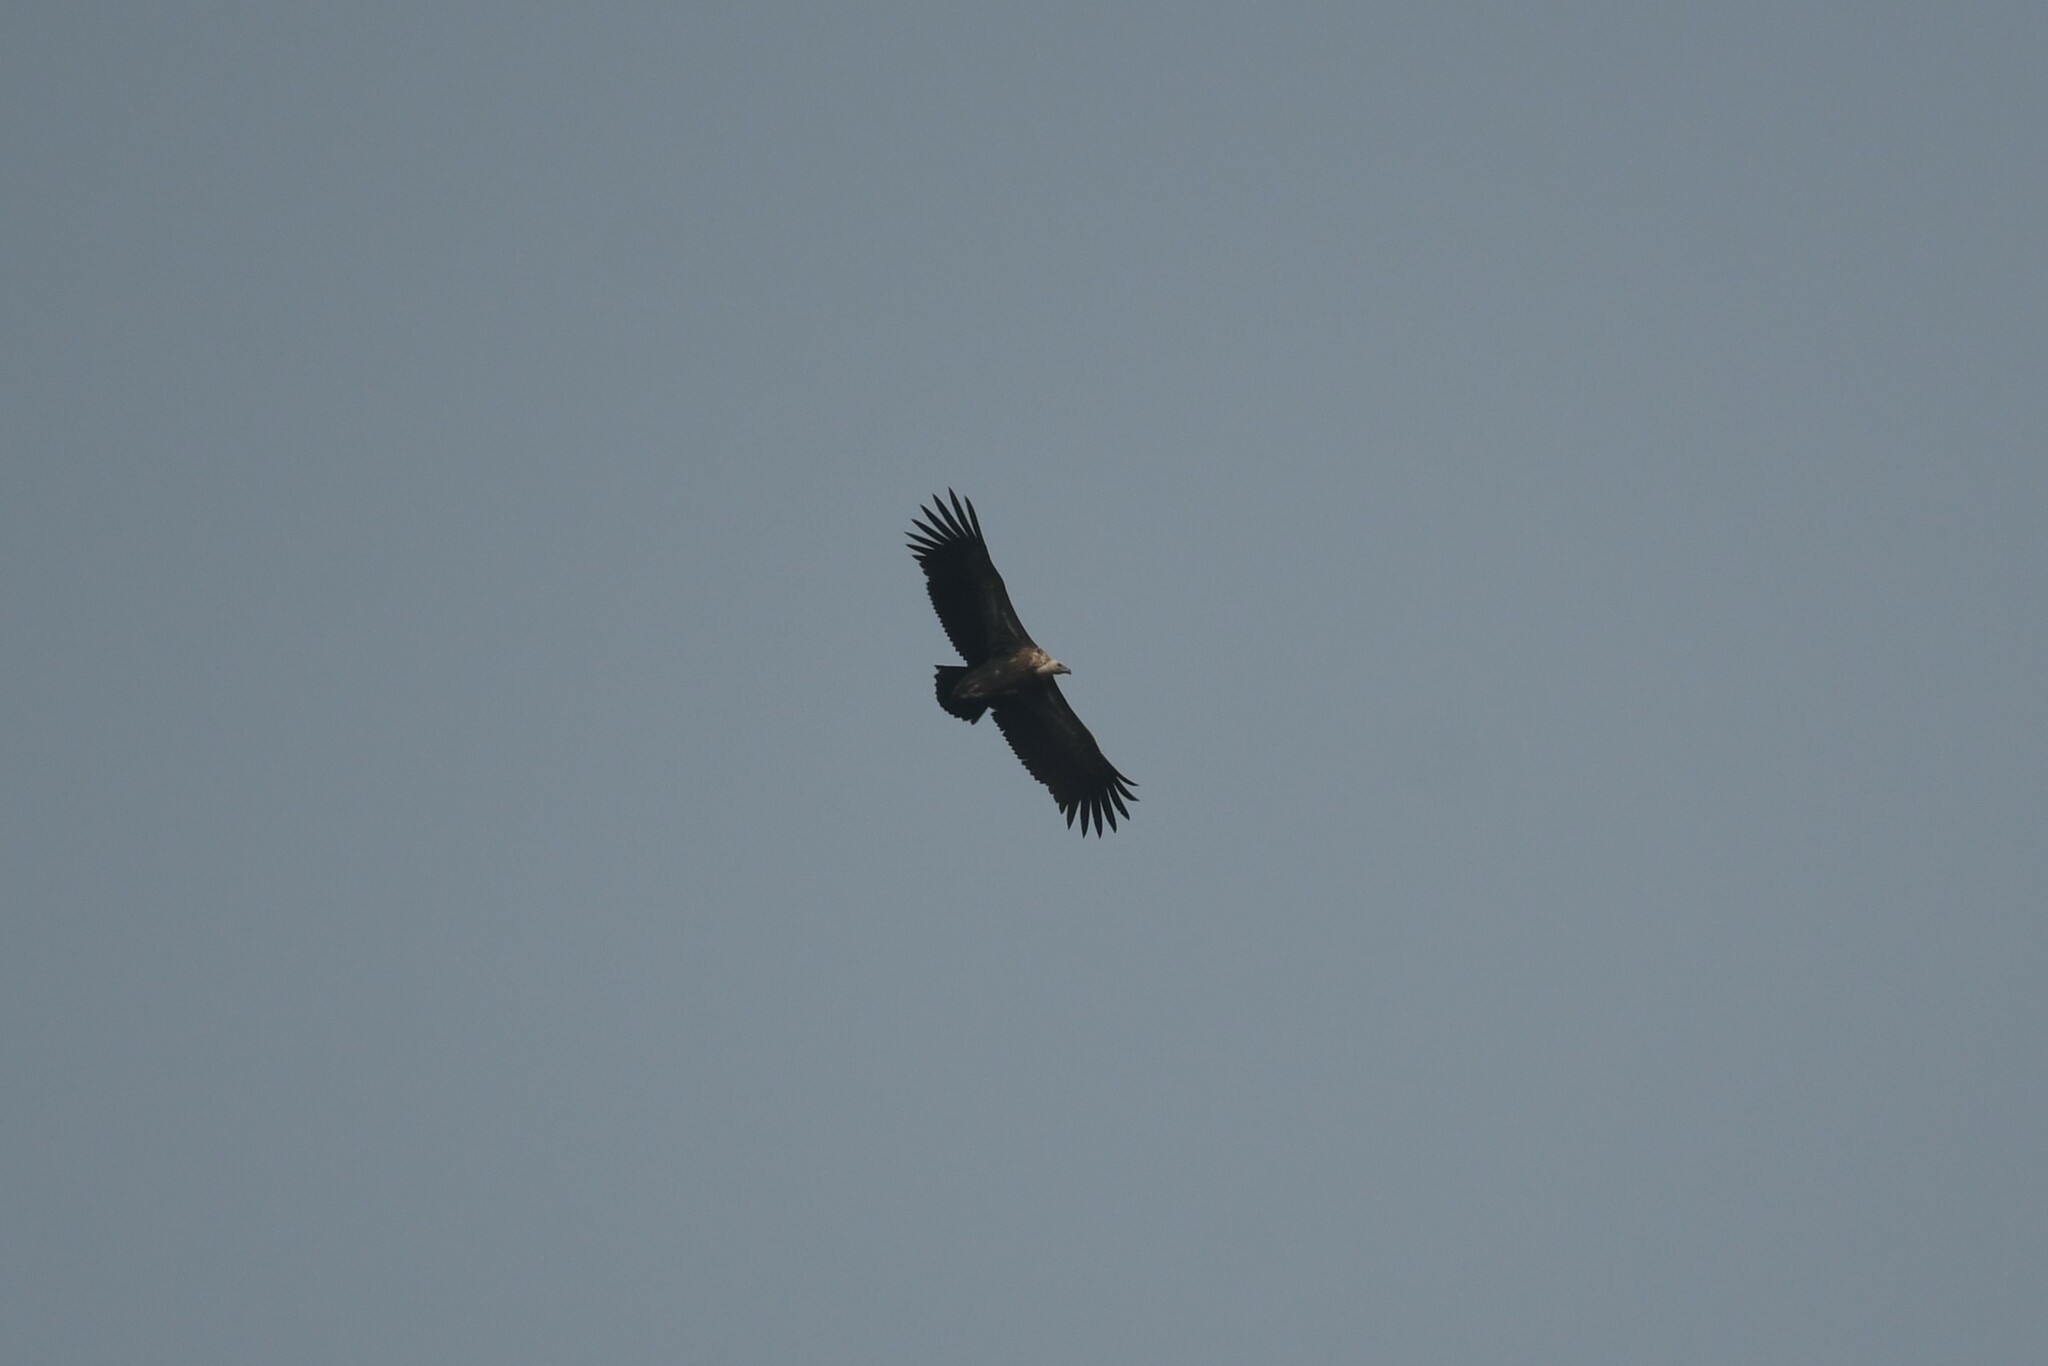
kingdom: Animalia
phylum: Chordata
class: Aves
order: Accipitriformes
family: Accipitridae
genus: Gyps
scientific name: Gyps himalayensis
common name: Himalayan griffon
